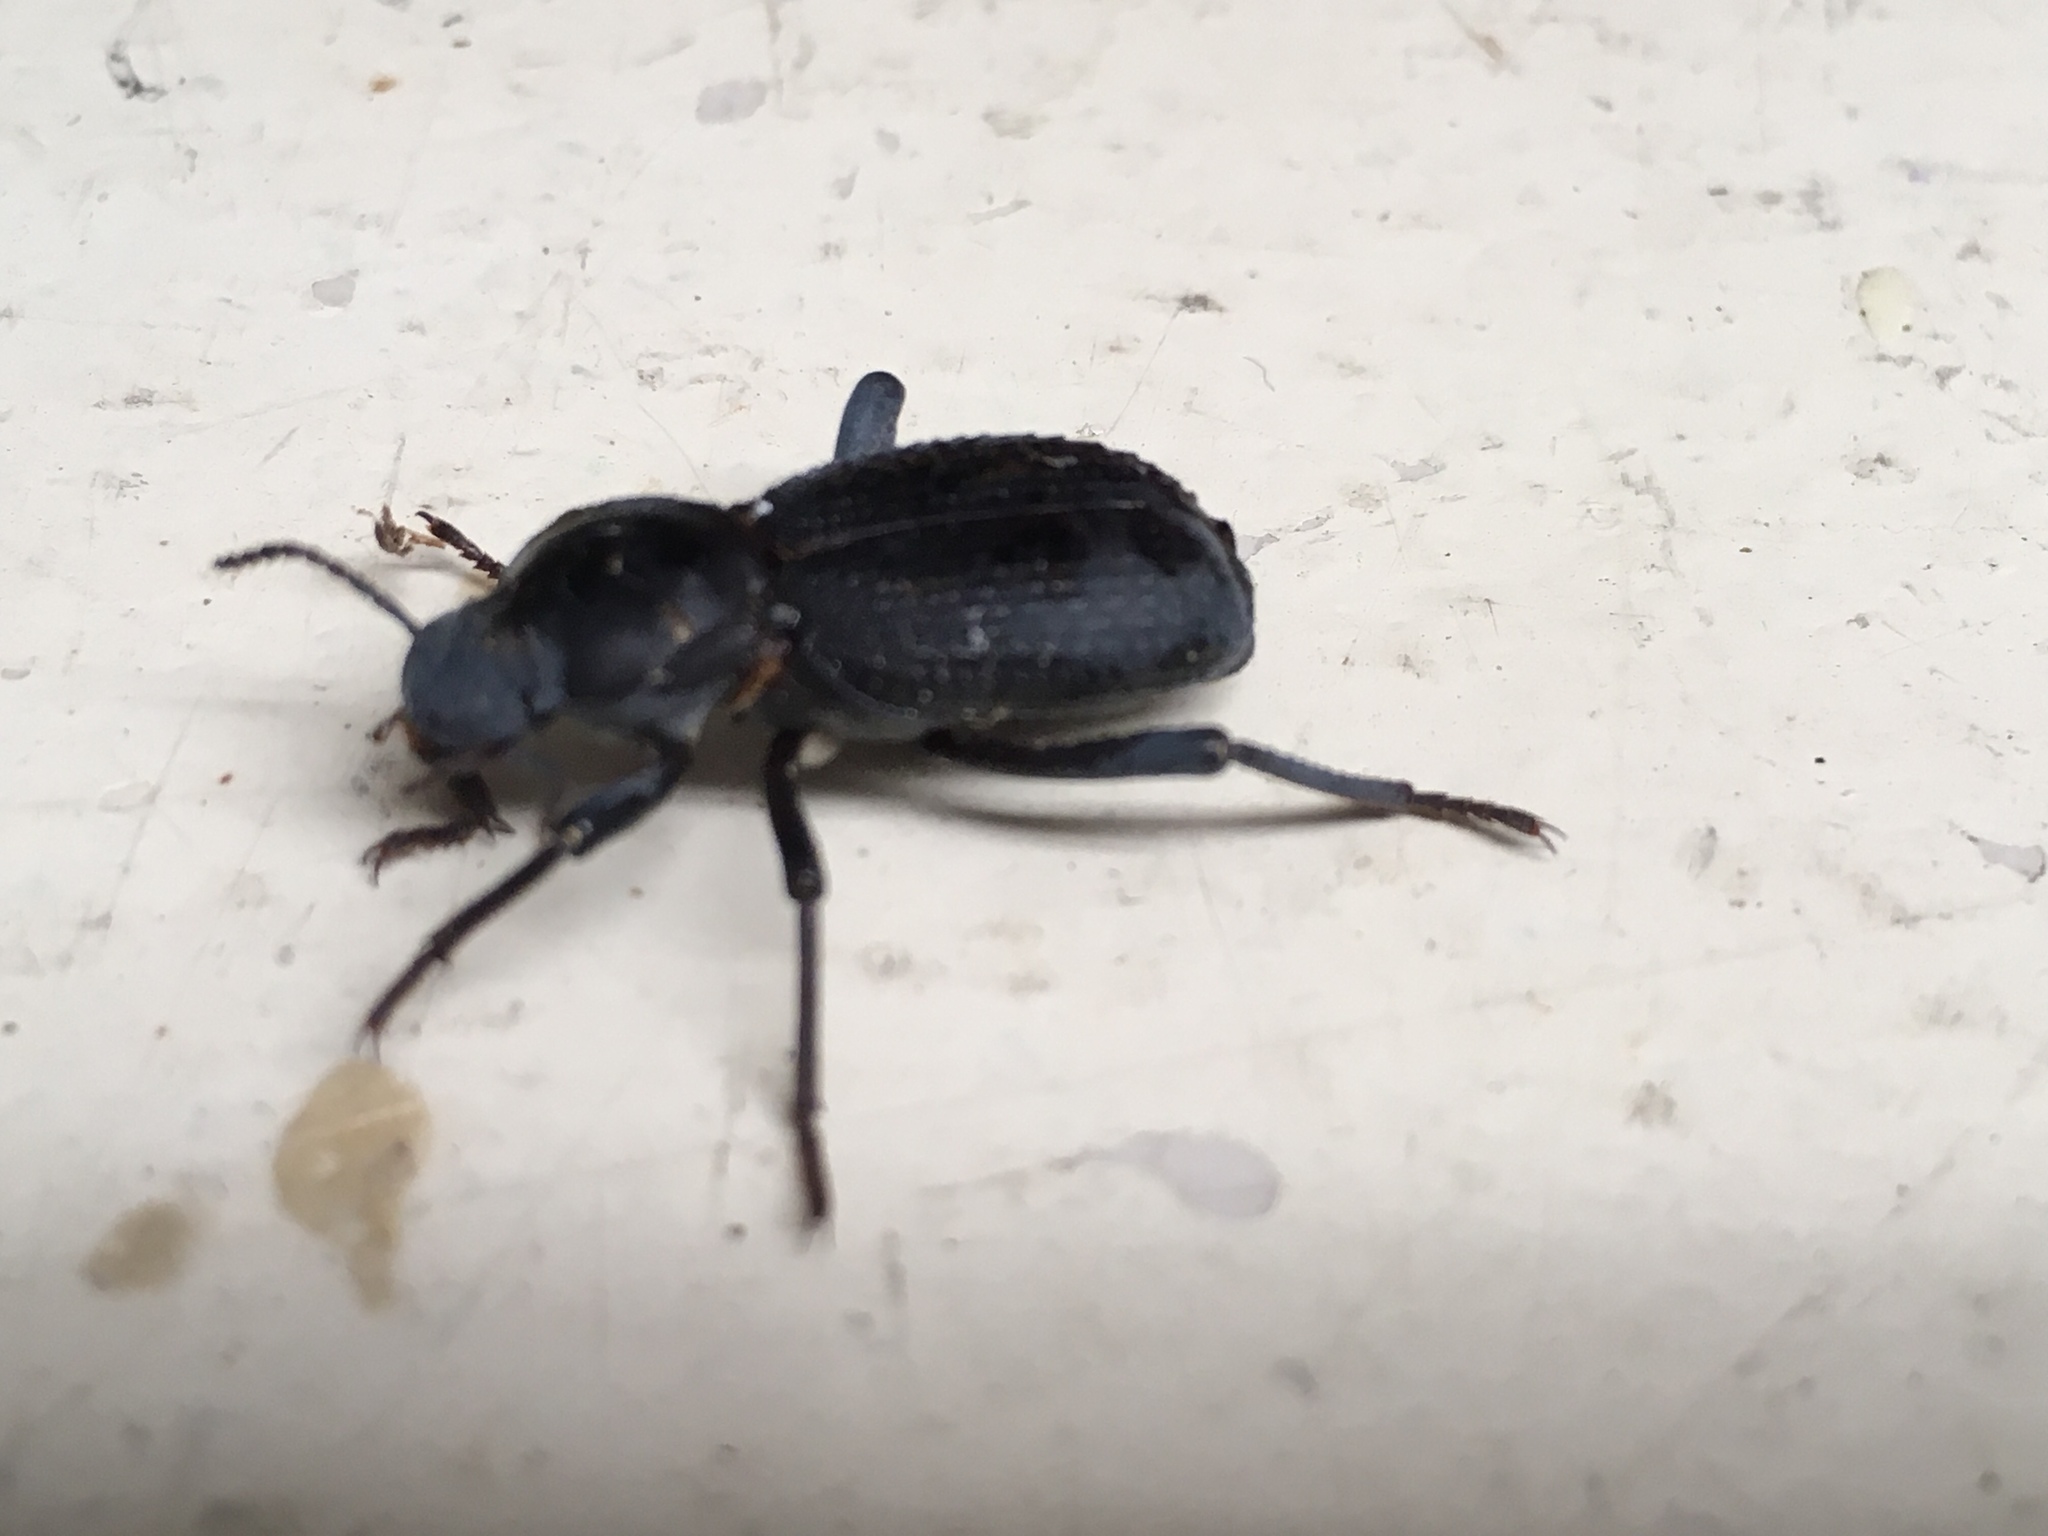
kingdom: Animalia
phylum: Arthropoda
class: Insecta
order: Coleoptera
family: Tenebrionidae
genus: Cryptoglossa
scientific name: Cryptoglossa muricata
